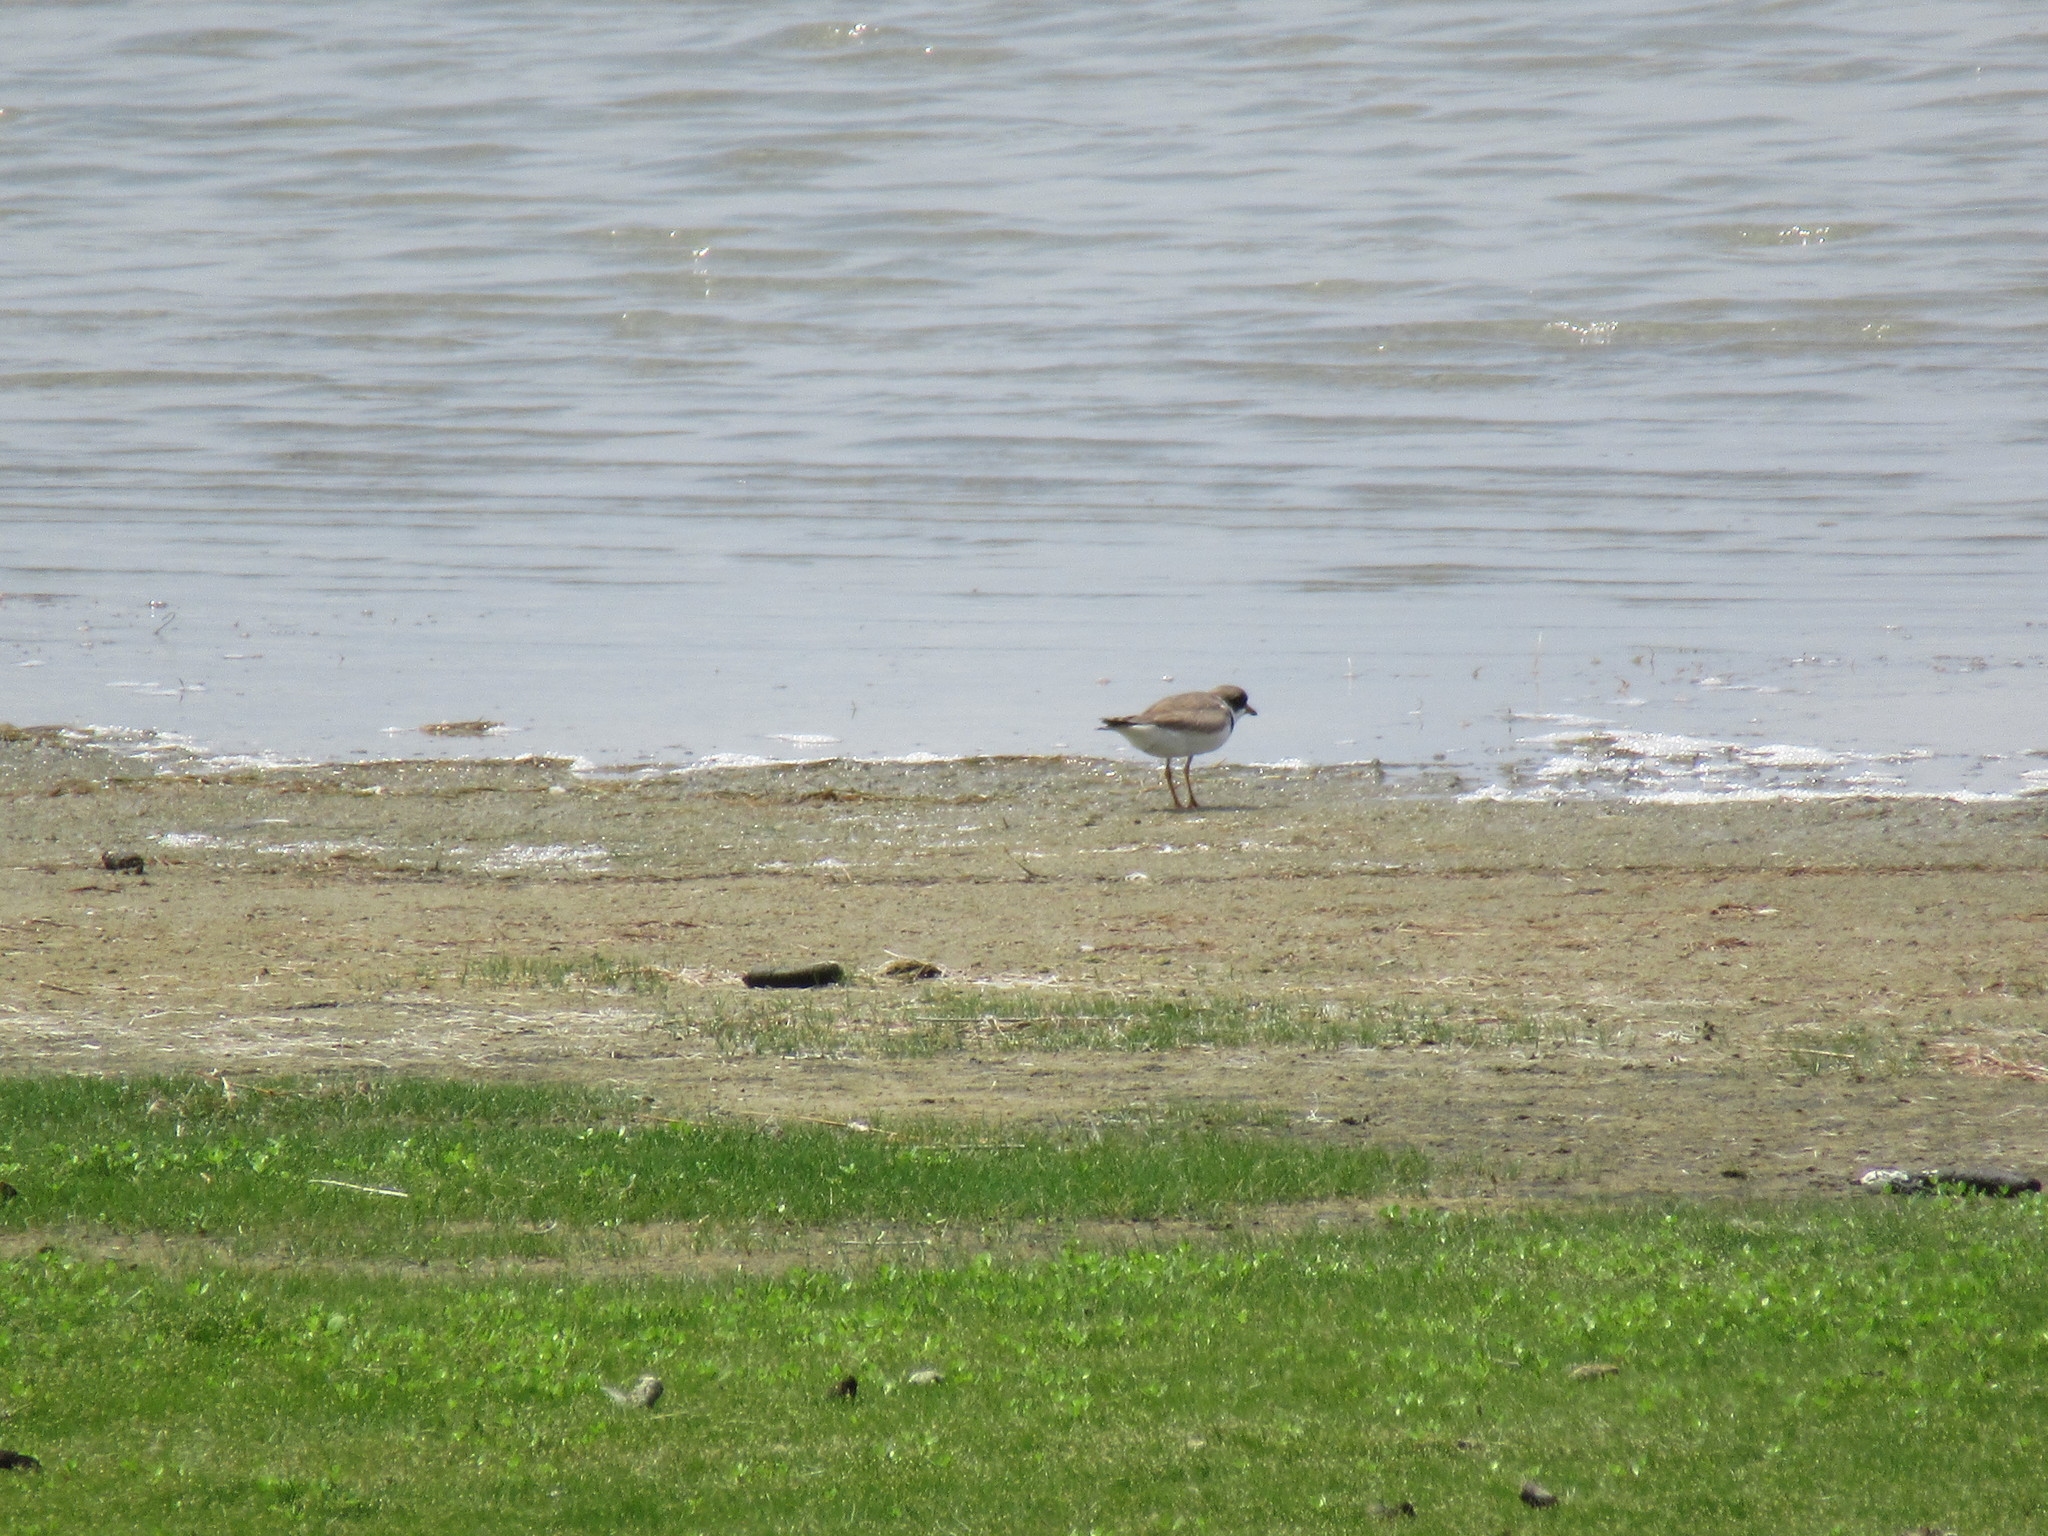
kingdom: Animalia
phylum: Chordata
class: Aves
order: Charadriiformes
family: Charadriidae
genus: Charadrius
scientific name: Charadrius semipalmatus
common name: Semipalmated plover
